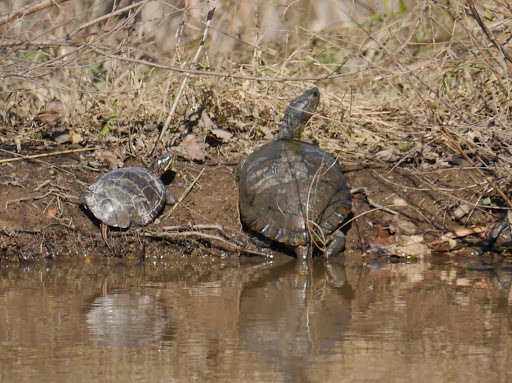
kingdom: Animalia
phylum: Chordata
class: Testudines
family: Emydidae
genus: Chrysemys
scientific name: Chrysemys picta
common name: Painted turtle
